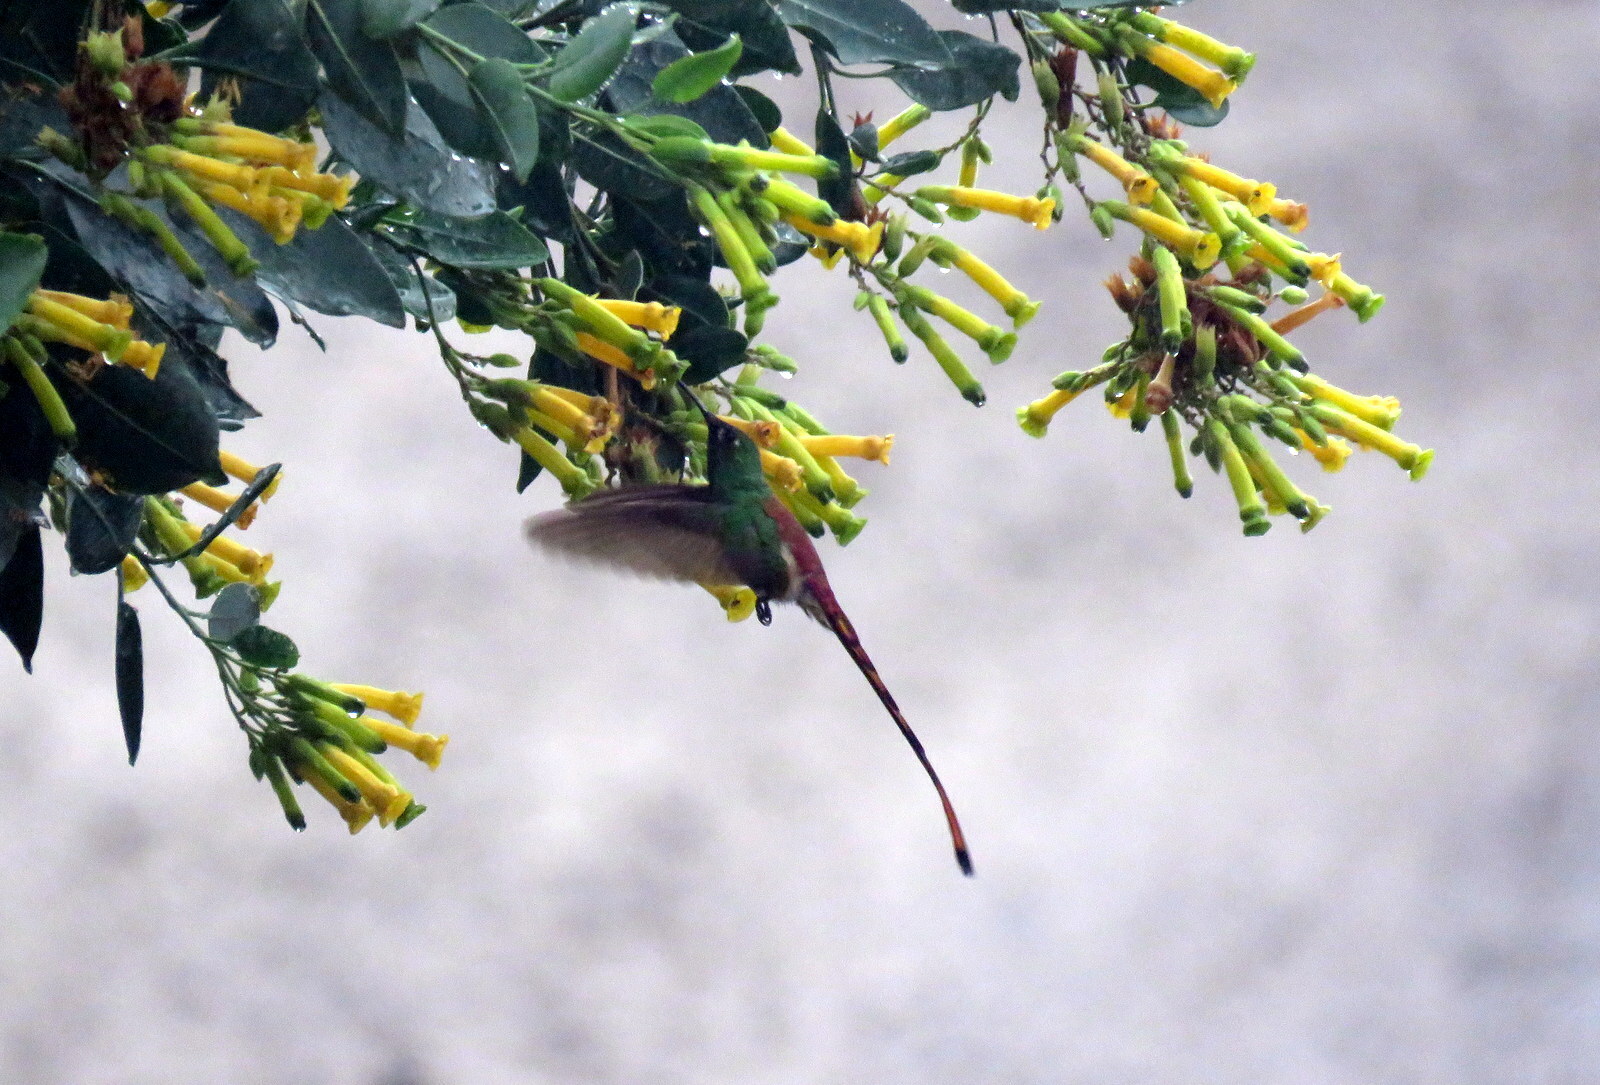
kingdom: Plantae
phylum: Tracheophyta
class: Magnoliopsida
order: Solanales
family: Solanaceae
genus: Nicotiana
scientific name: Nicotiana glauca
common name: Tree tobacco
